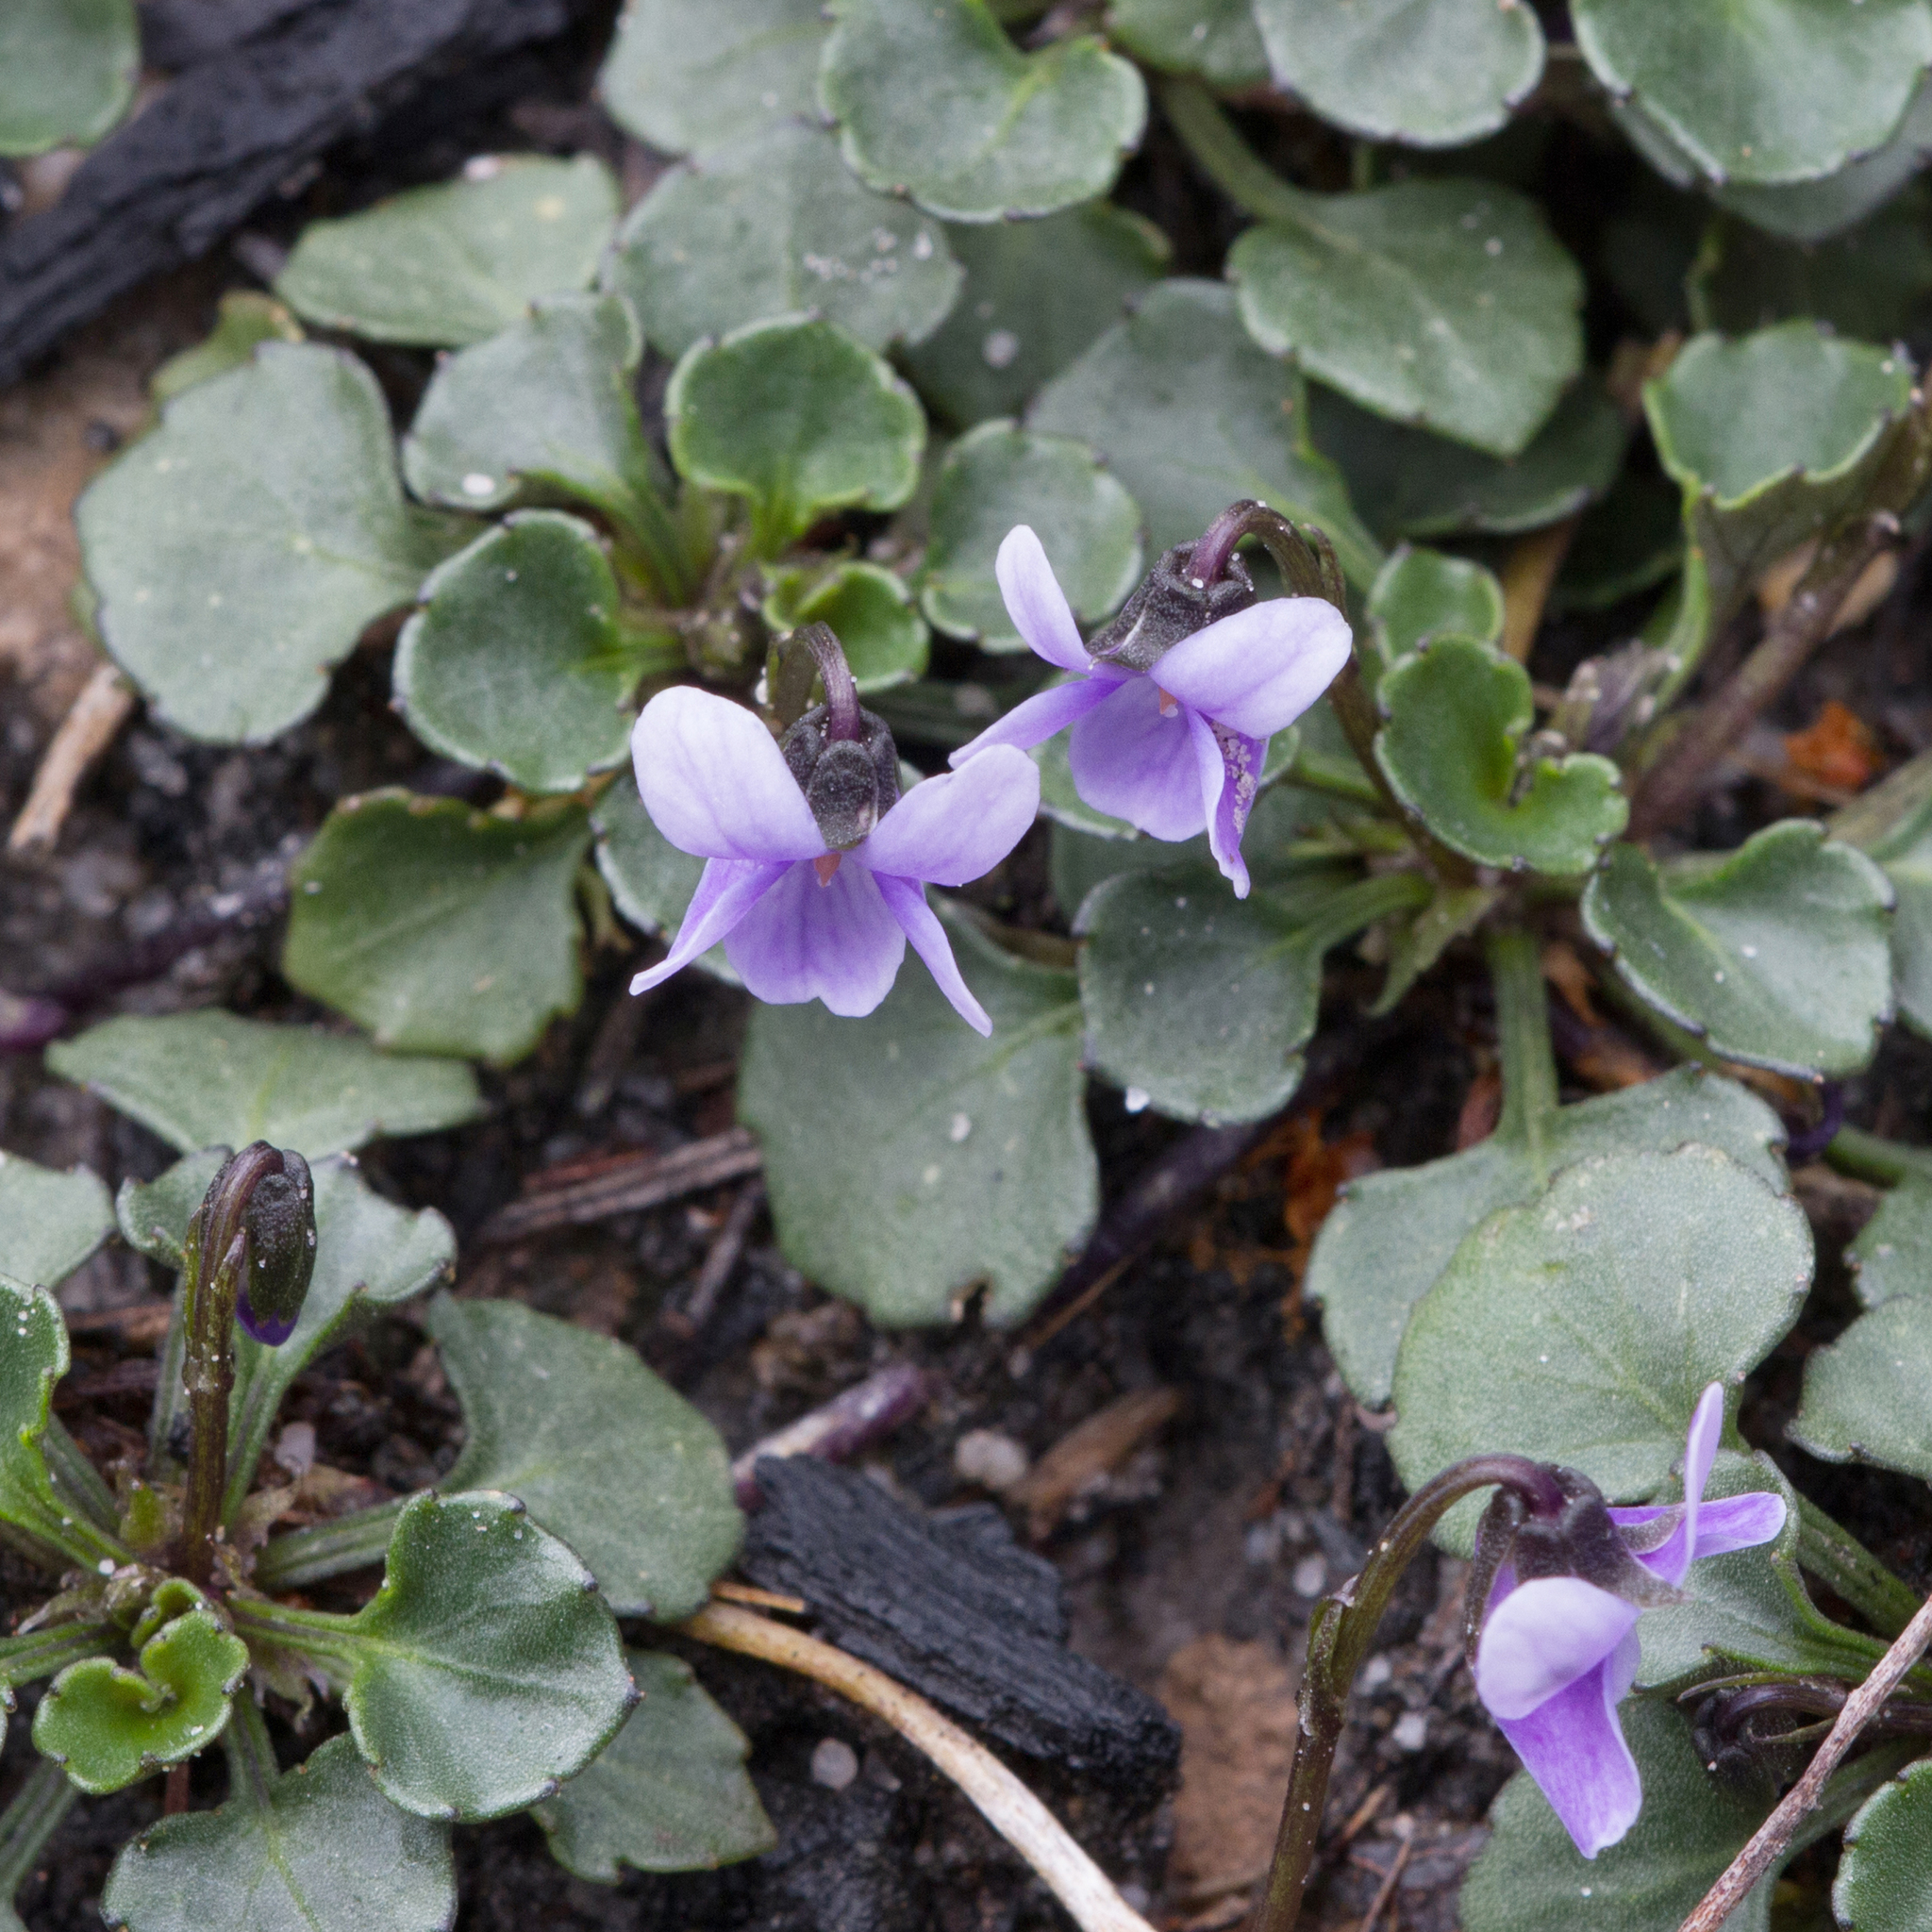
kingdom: Plantae
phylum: Tracheophyta
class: Magnoliopsida
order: Malpighiales
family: Violaceae
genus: Viola
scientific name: Viola sieberiana
